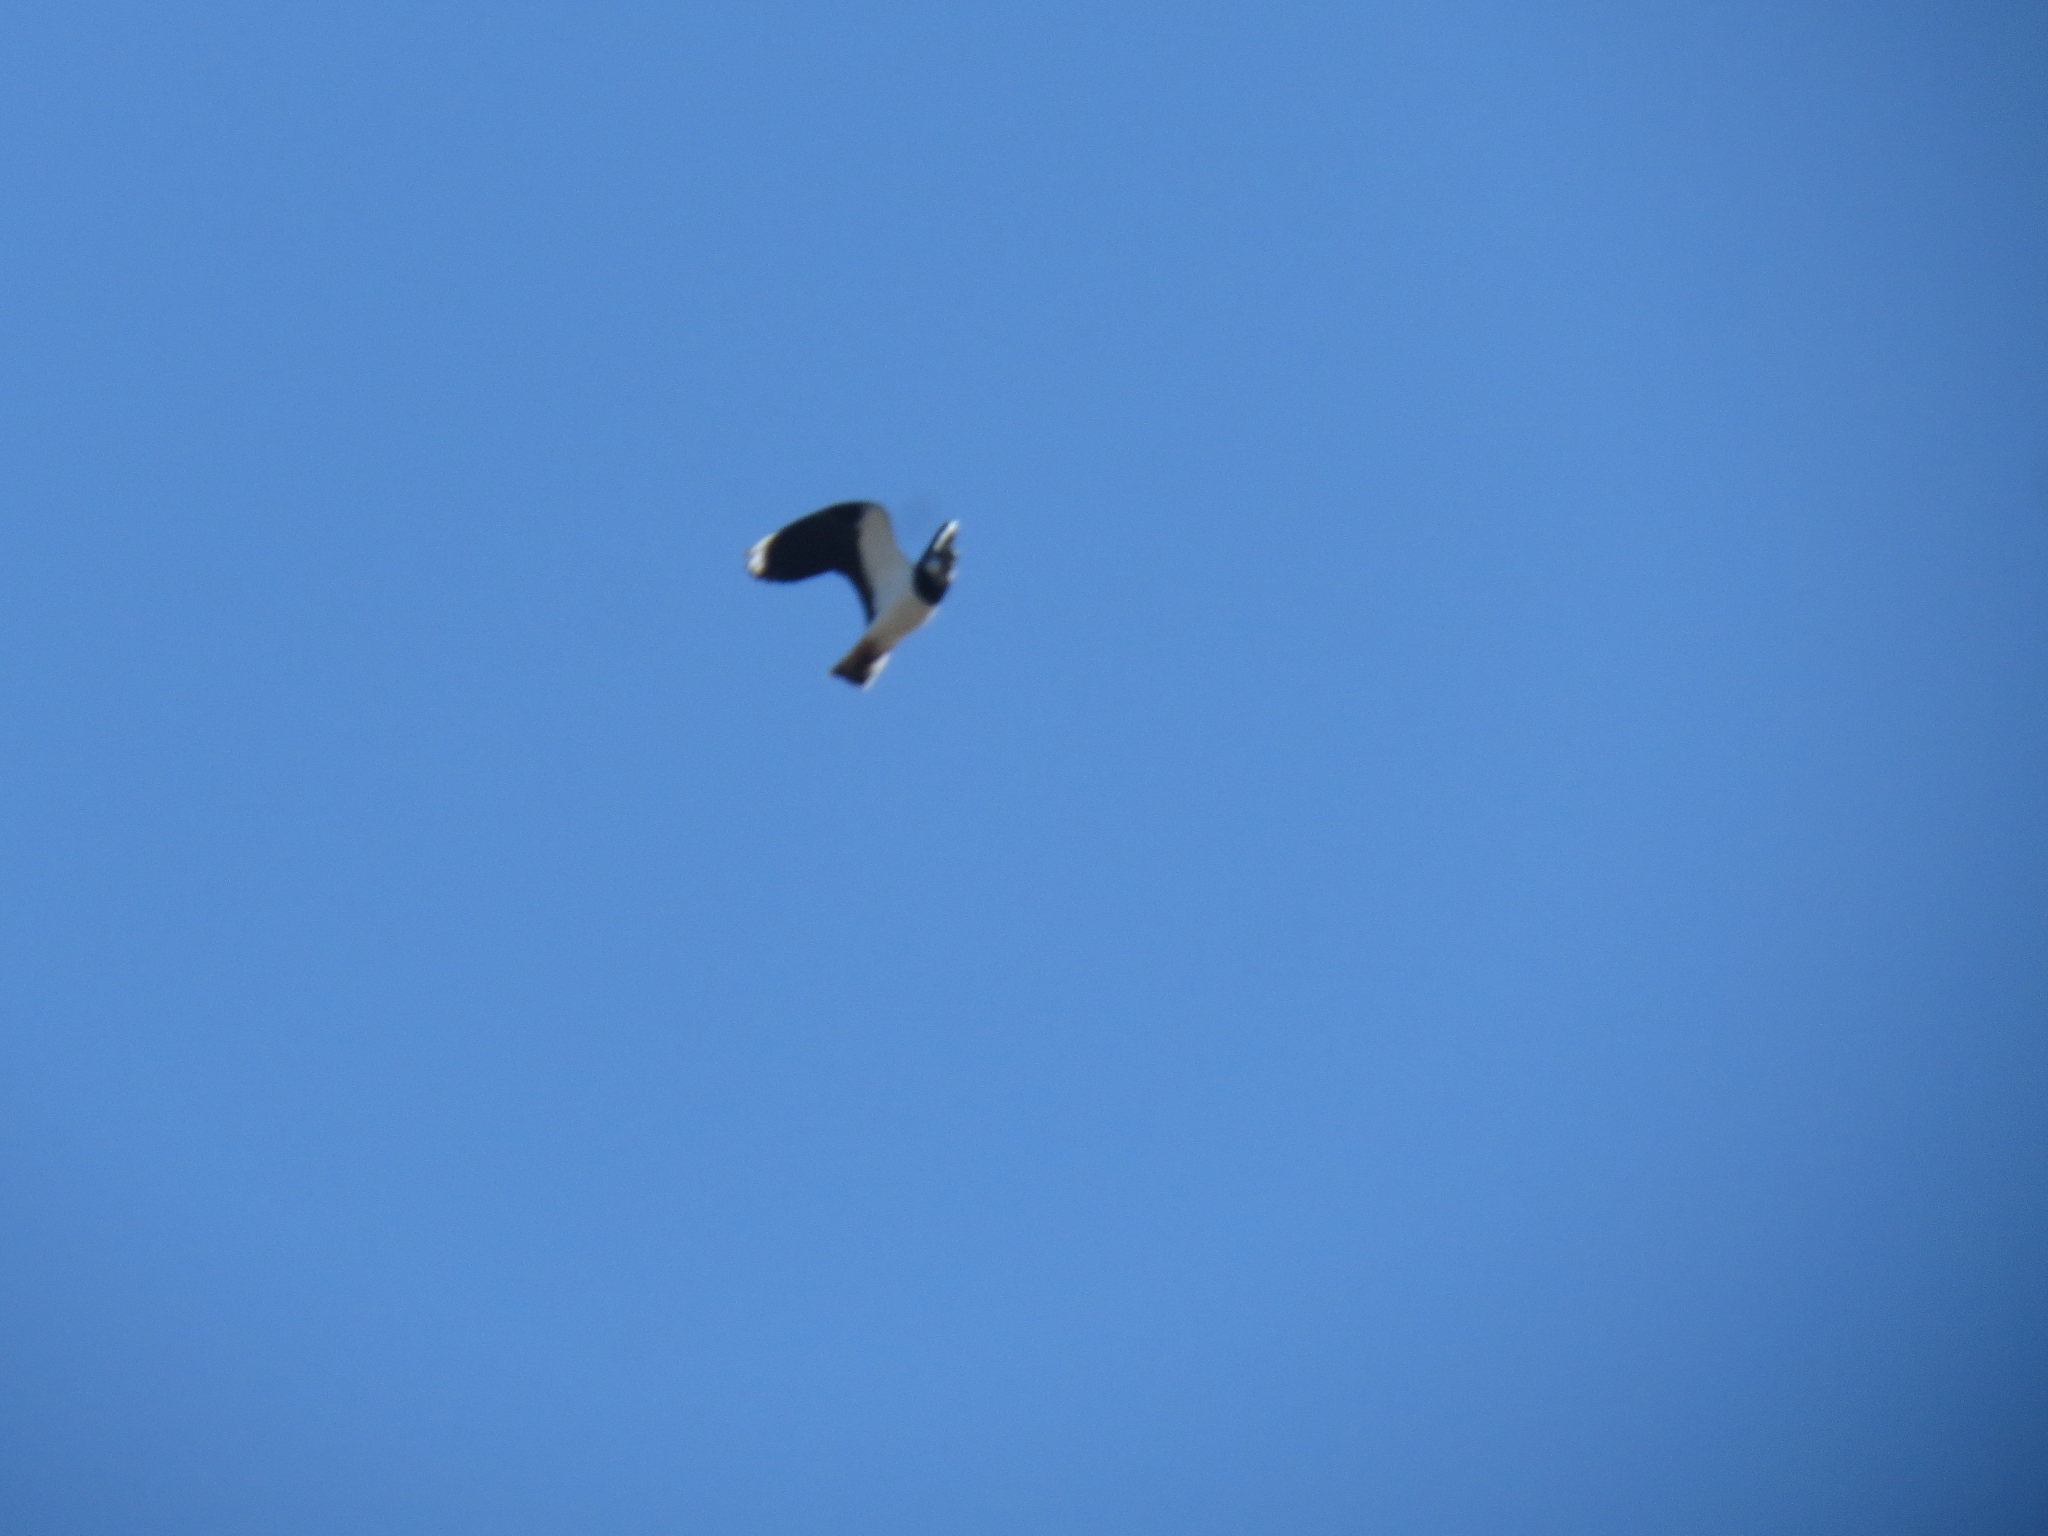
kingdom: Animalia
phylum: Chordata
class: Aves
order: Charadriiformes
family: Charadriidae
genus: Vanellus
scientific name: Vanellus vanellus
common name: Northern lapwing
